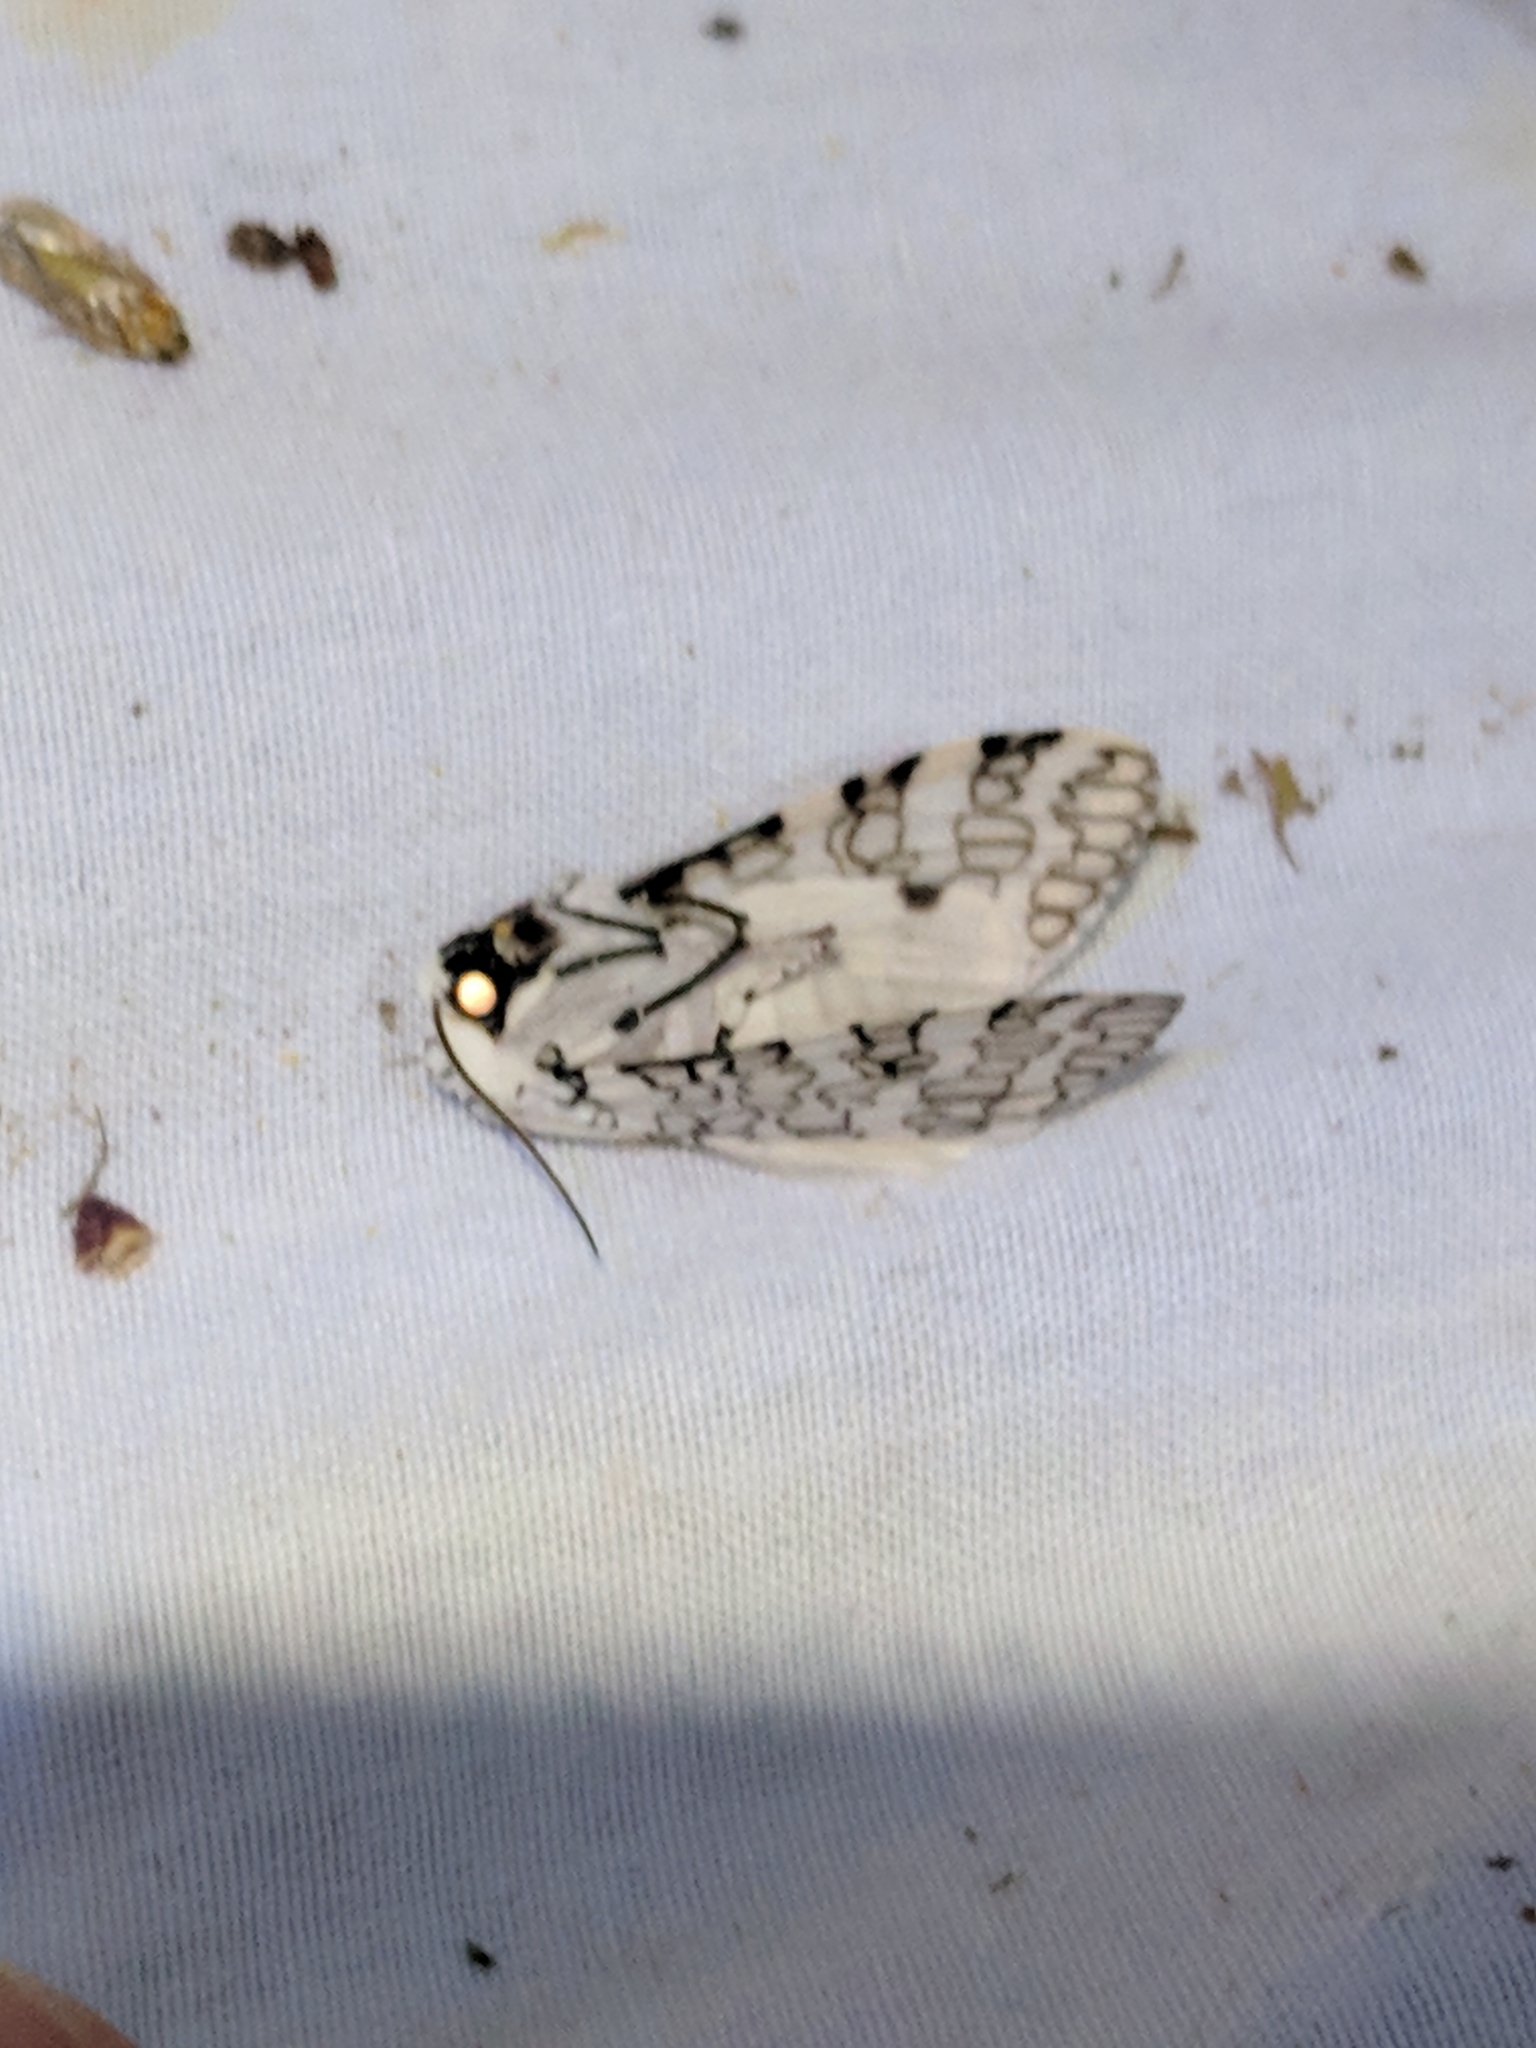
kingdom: Animalia
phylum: Arthropoda
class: Insecta
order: Lepidoptera
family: Erebidae
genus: Hypercompe
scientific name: Hypercompe oslari
